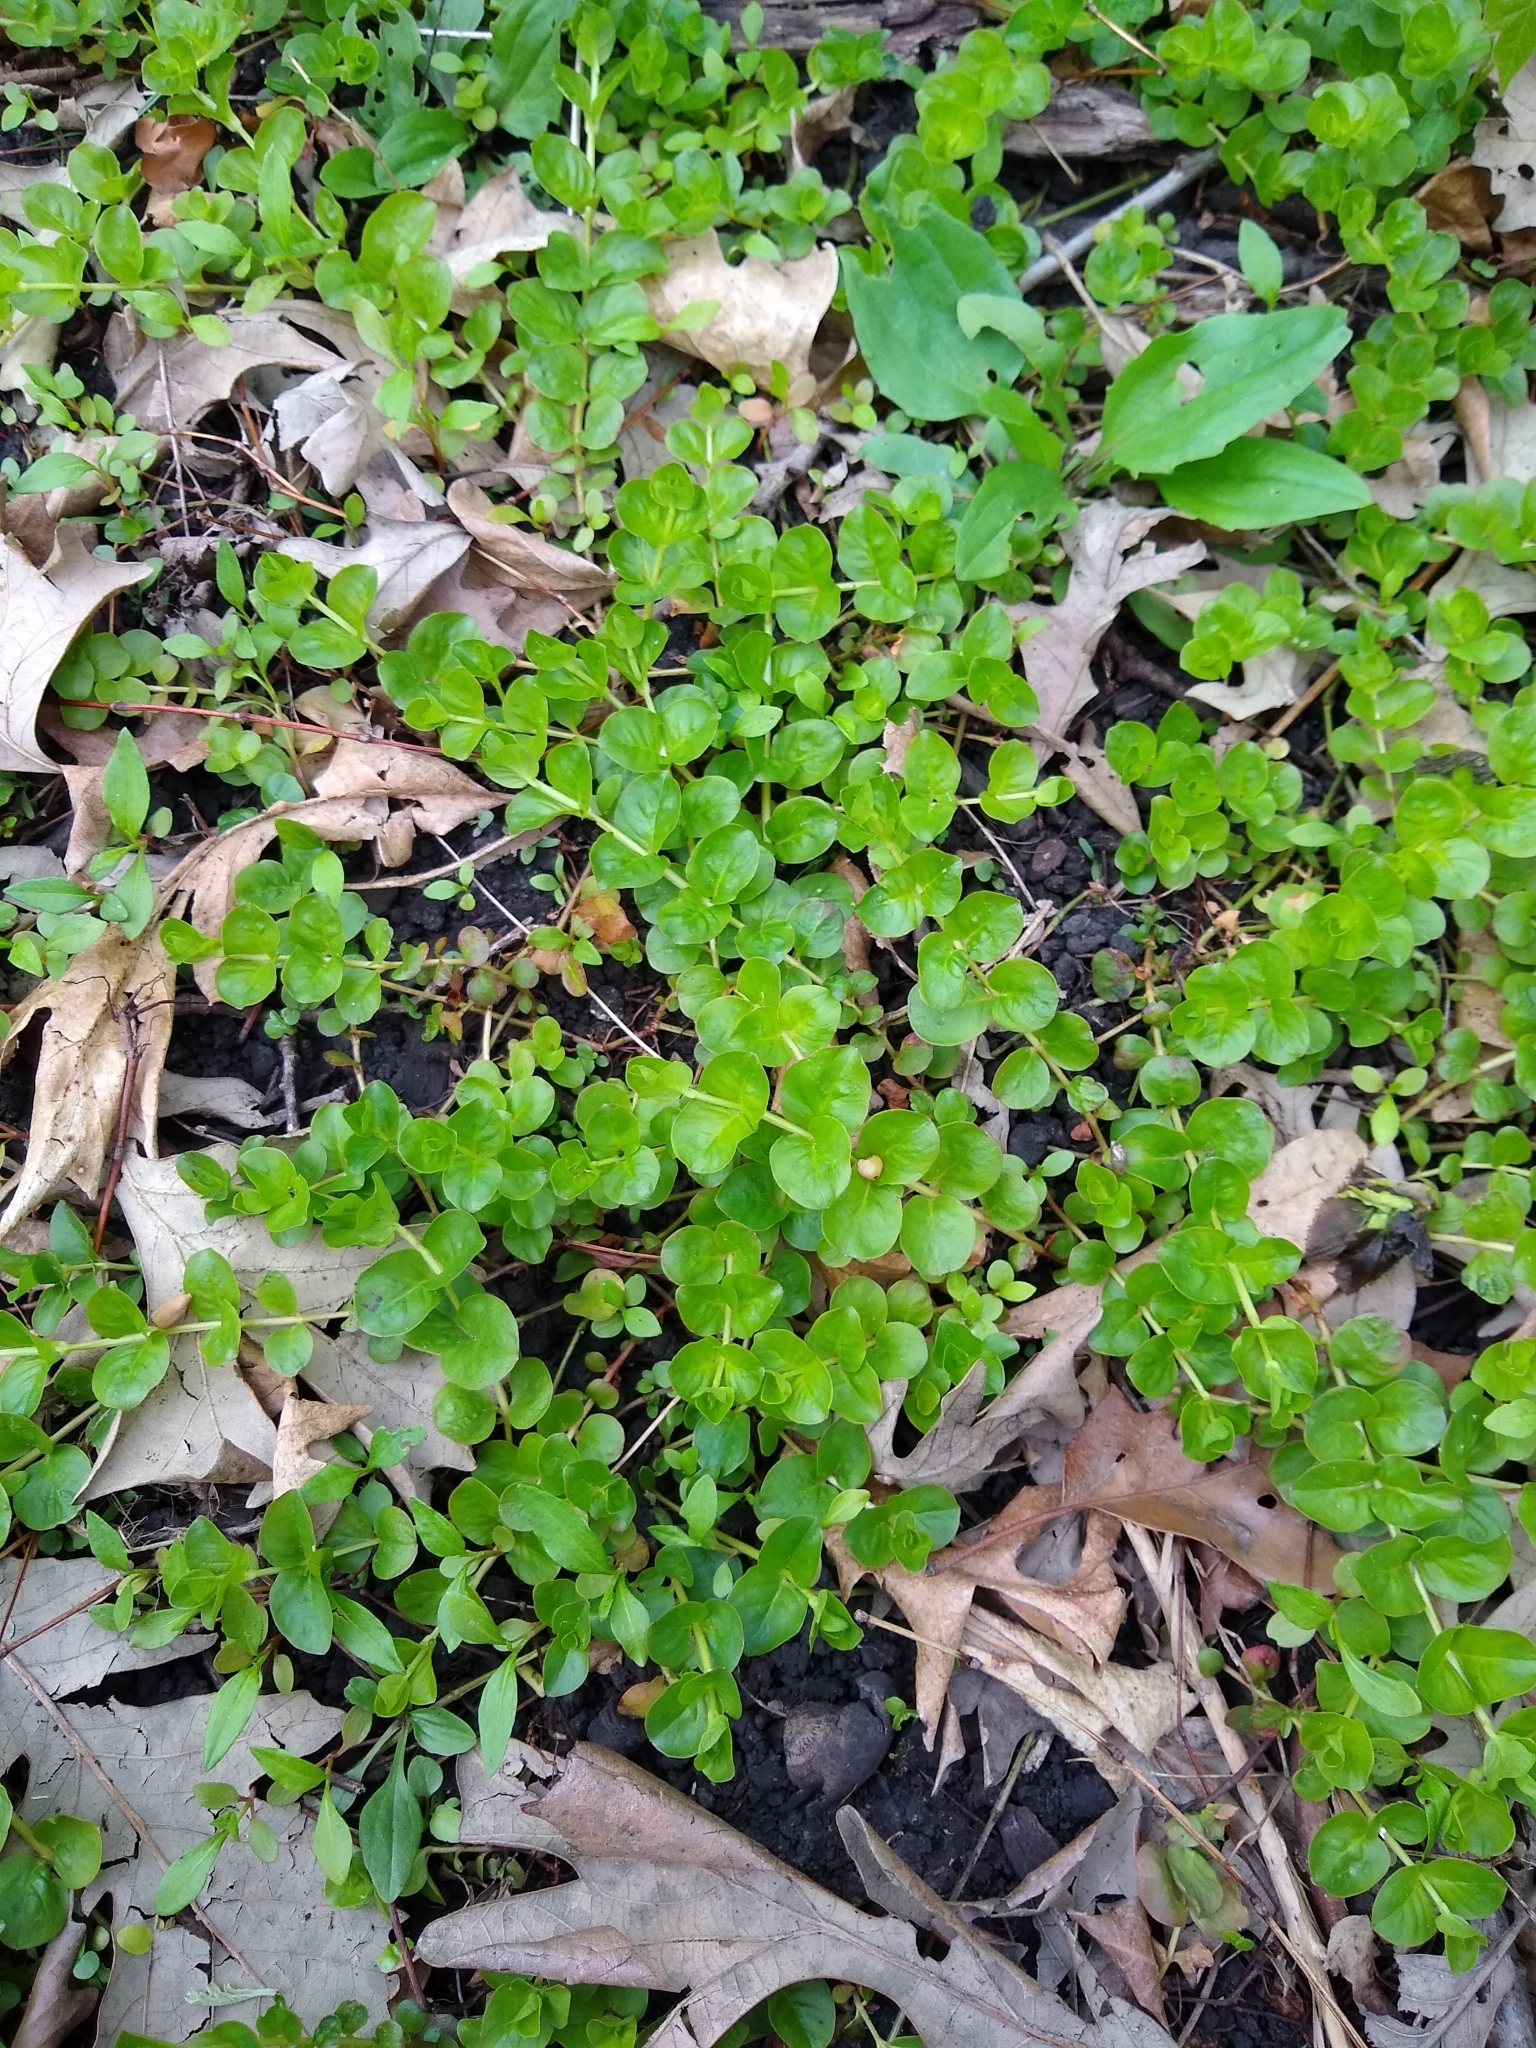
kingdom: Plantae
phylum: Tracheophyta
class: Magnoliopsida
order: Ericales
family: Primulaceae
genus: Lysimachia
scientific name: Lysimachia nummularia
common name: Moneywort
